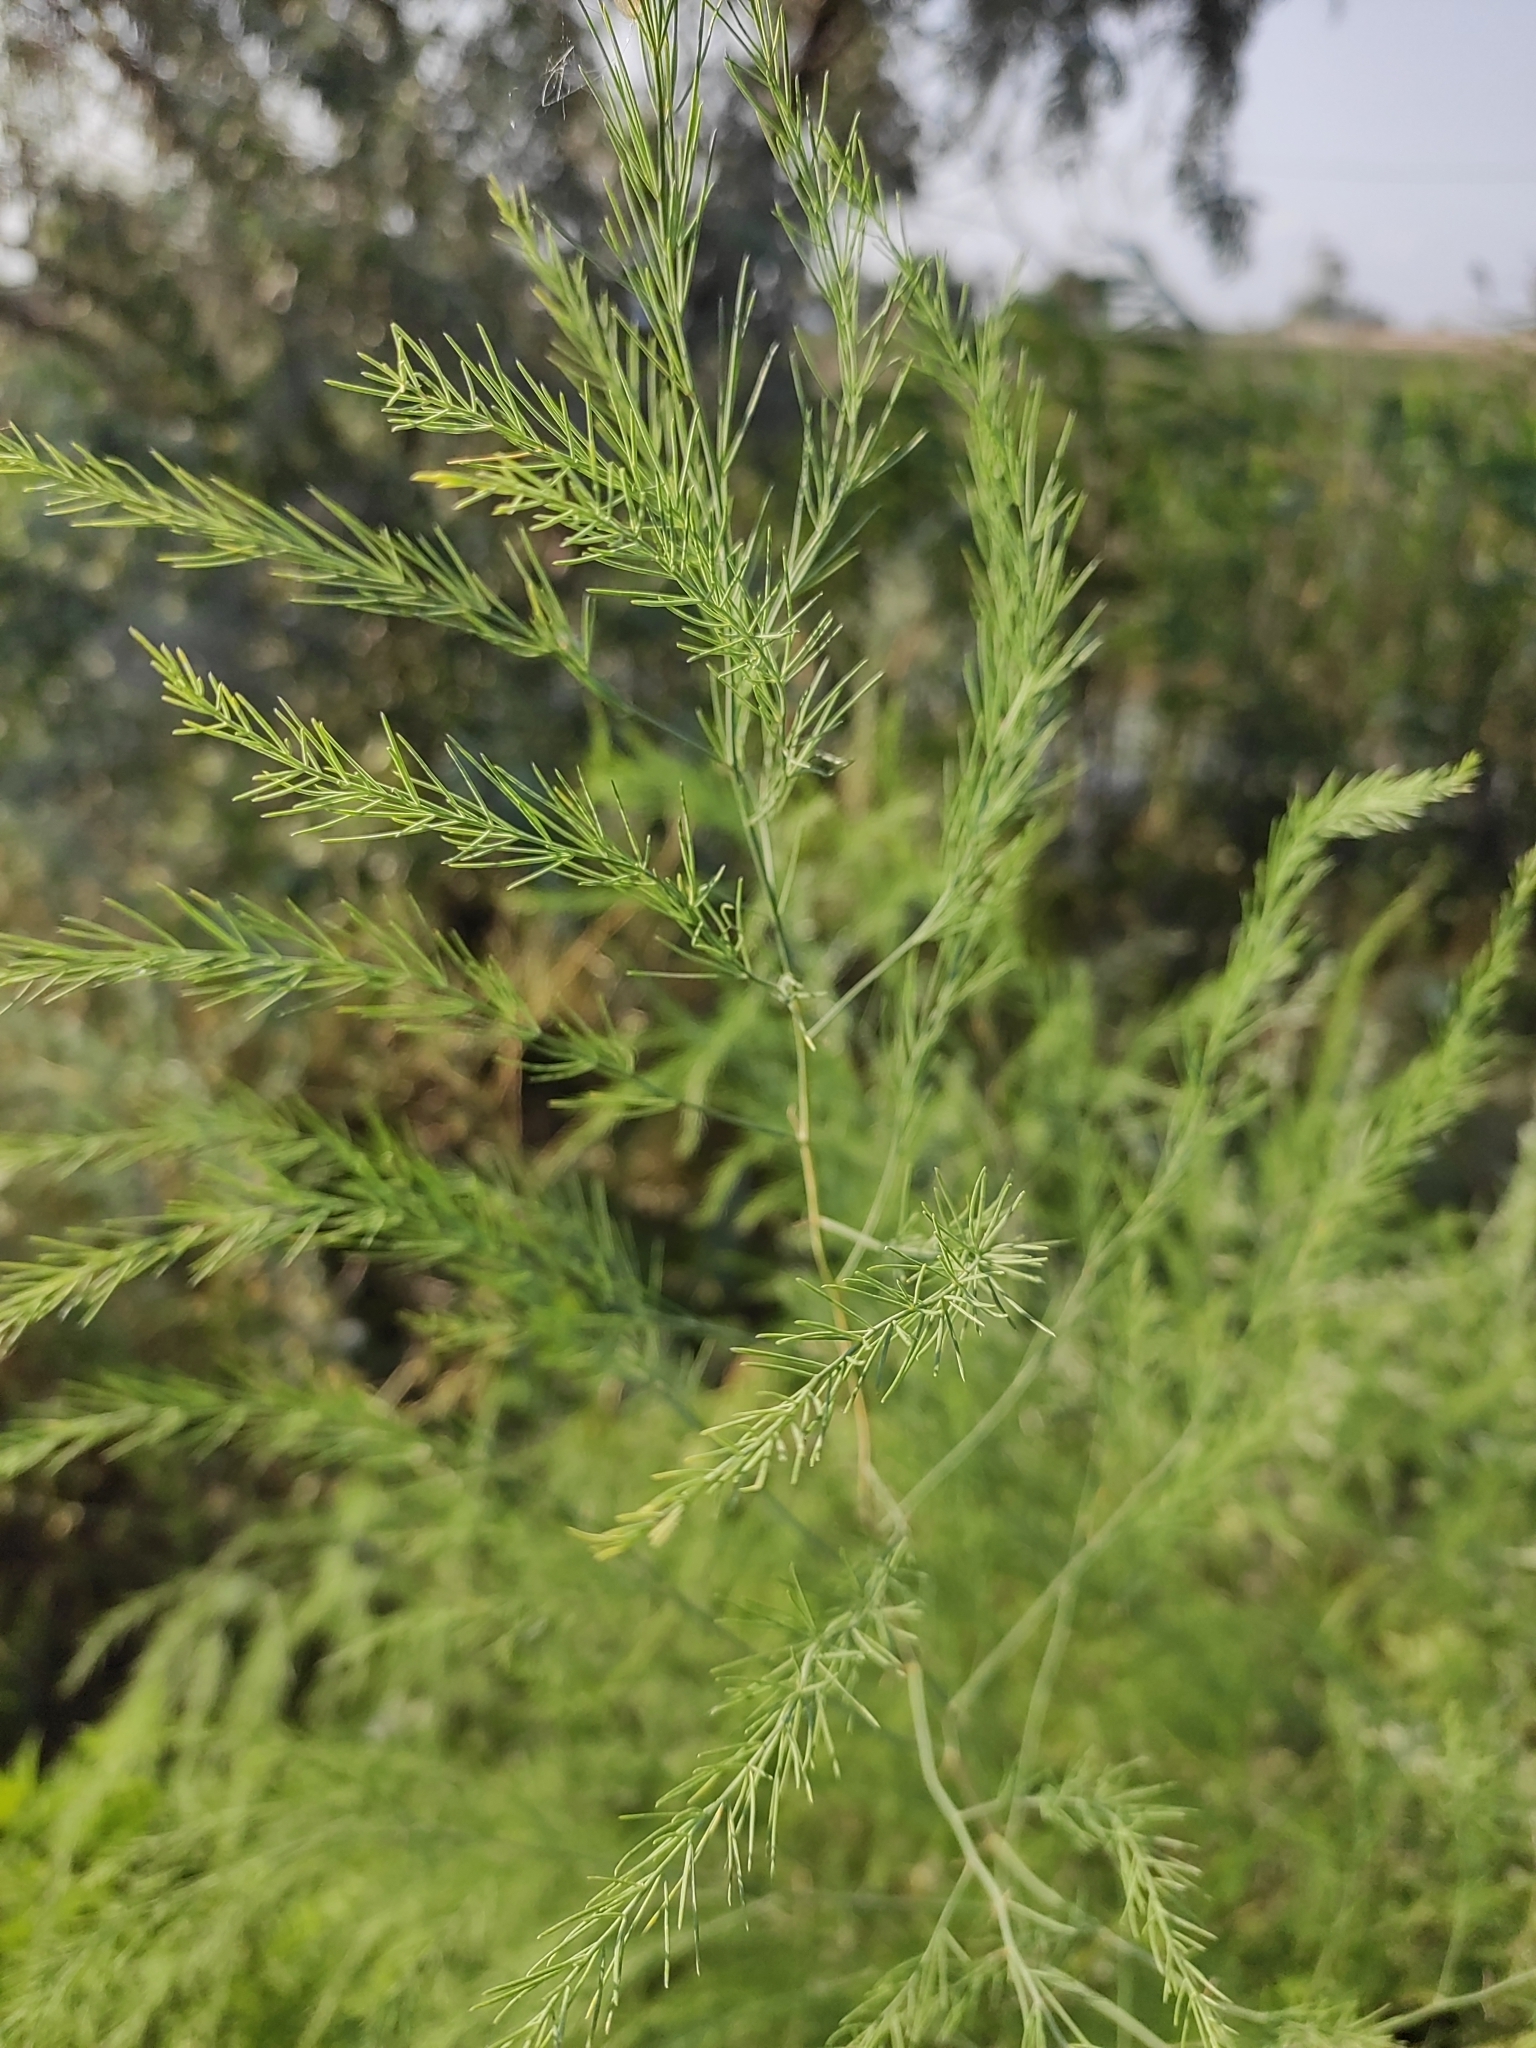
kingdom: Plantae
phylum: Tracheophyta
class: Liliopsida
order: Asparagales
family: Asparagaceae
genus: Asparagus
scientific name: Asparagus officinalis
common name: Garden asparagus
